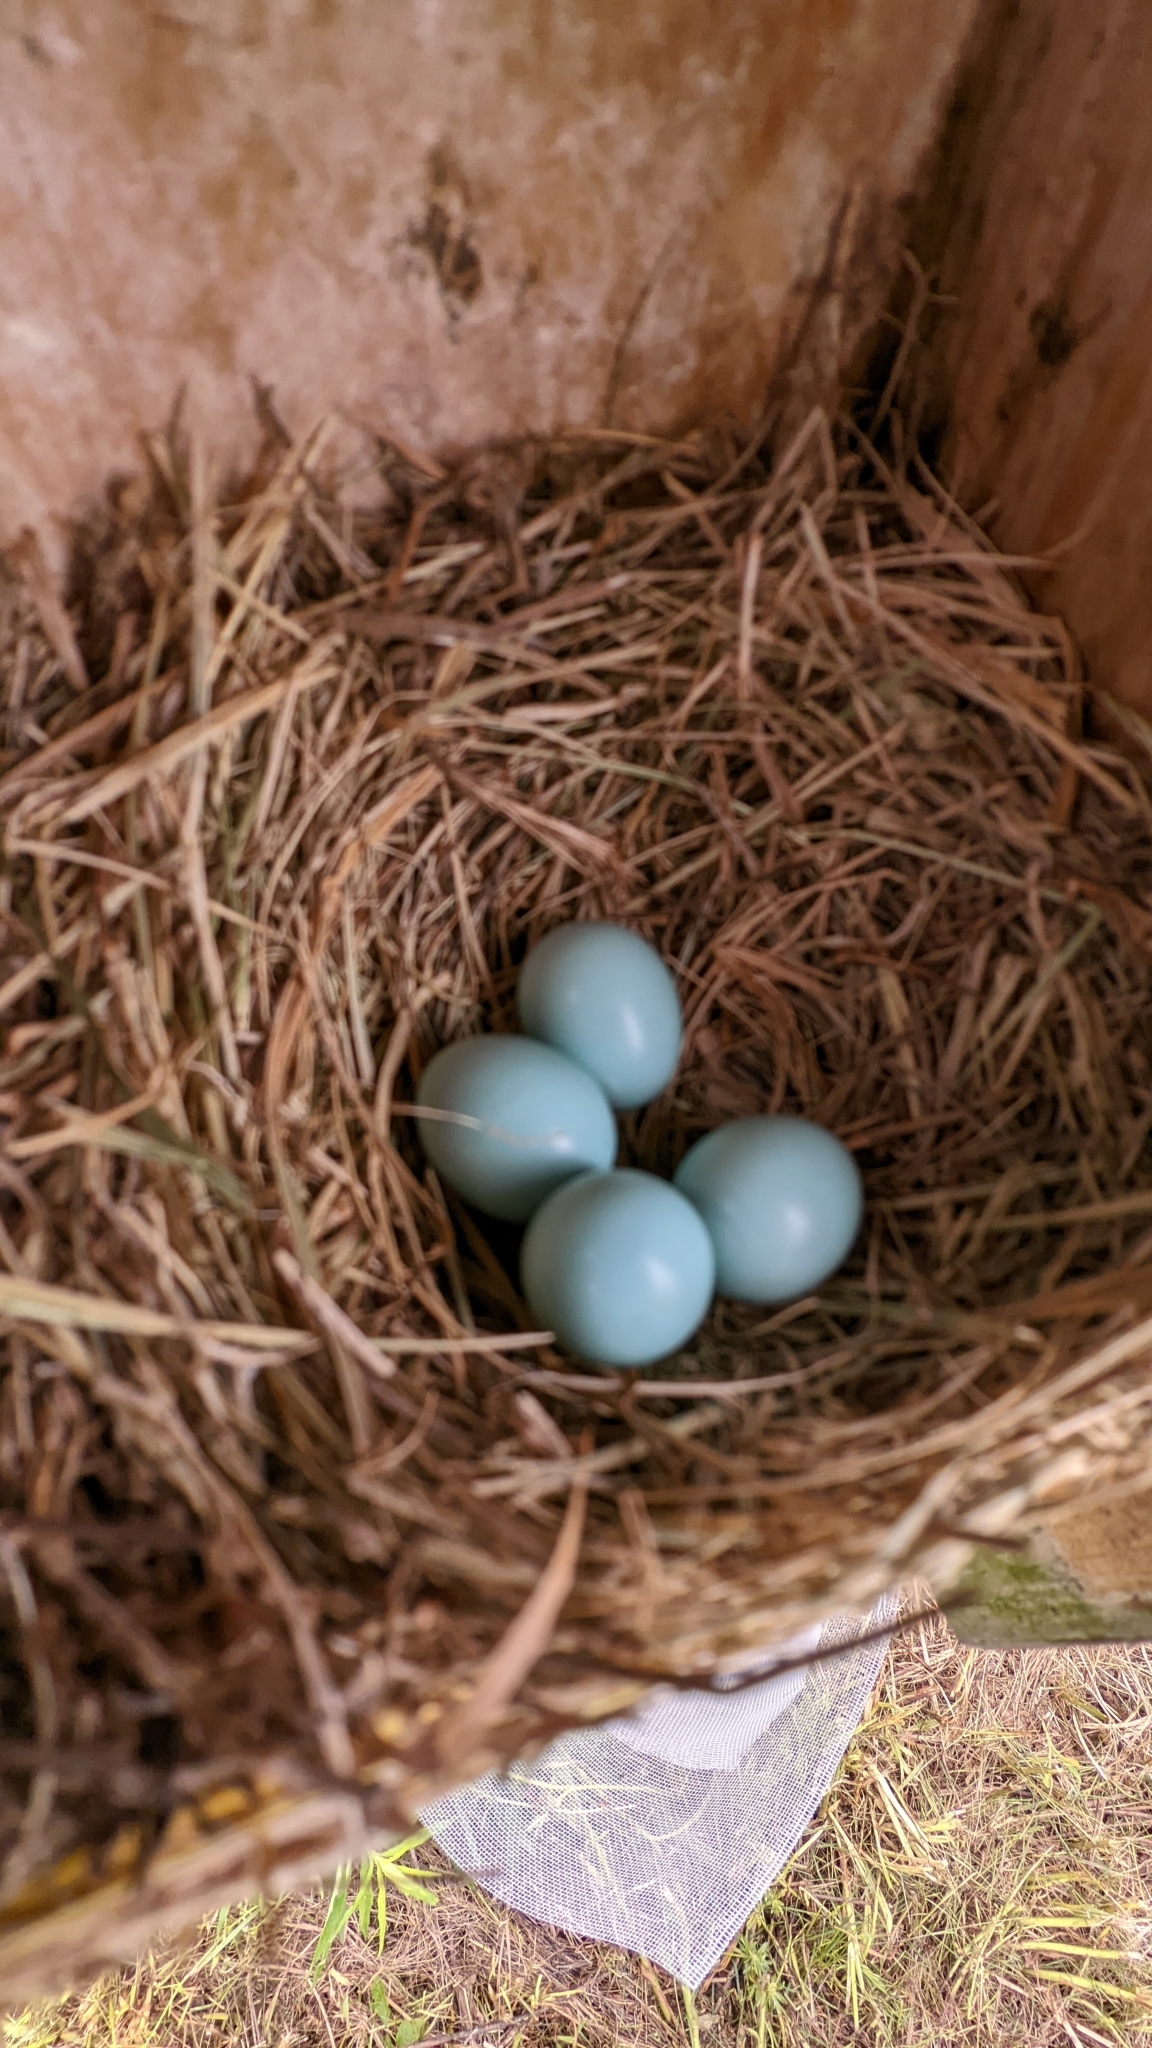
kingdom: Animalia
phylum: Chordata
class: Aves
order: Passeriformes
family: Turdidae
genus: Sialia
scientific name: Sialia sialis
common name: Eastern bluebird
